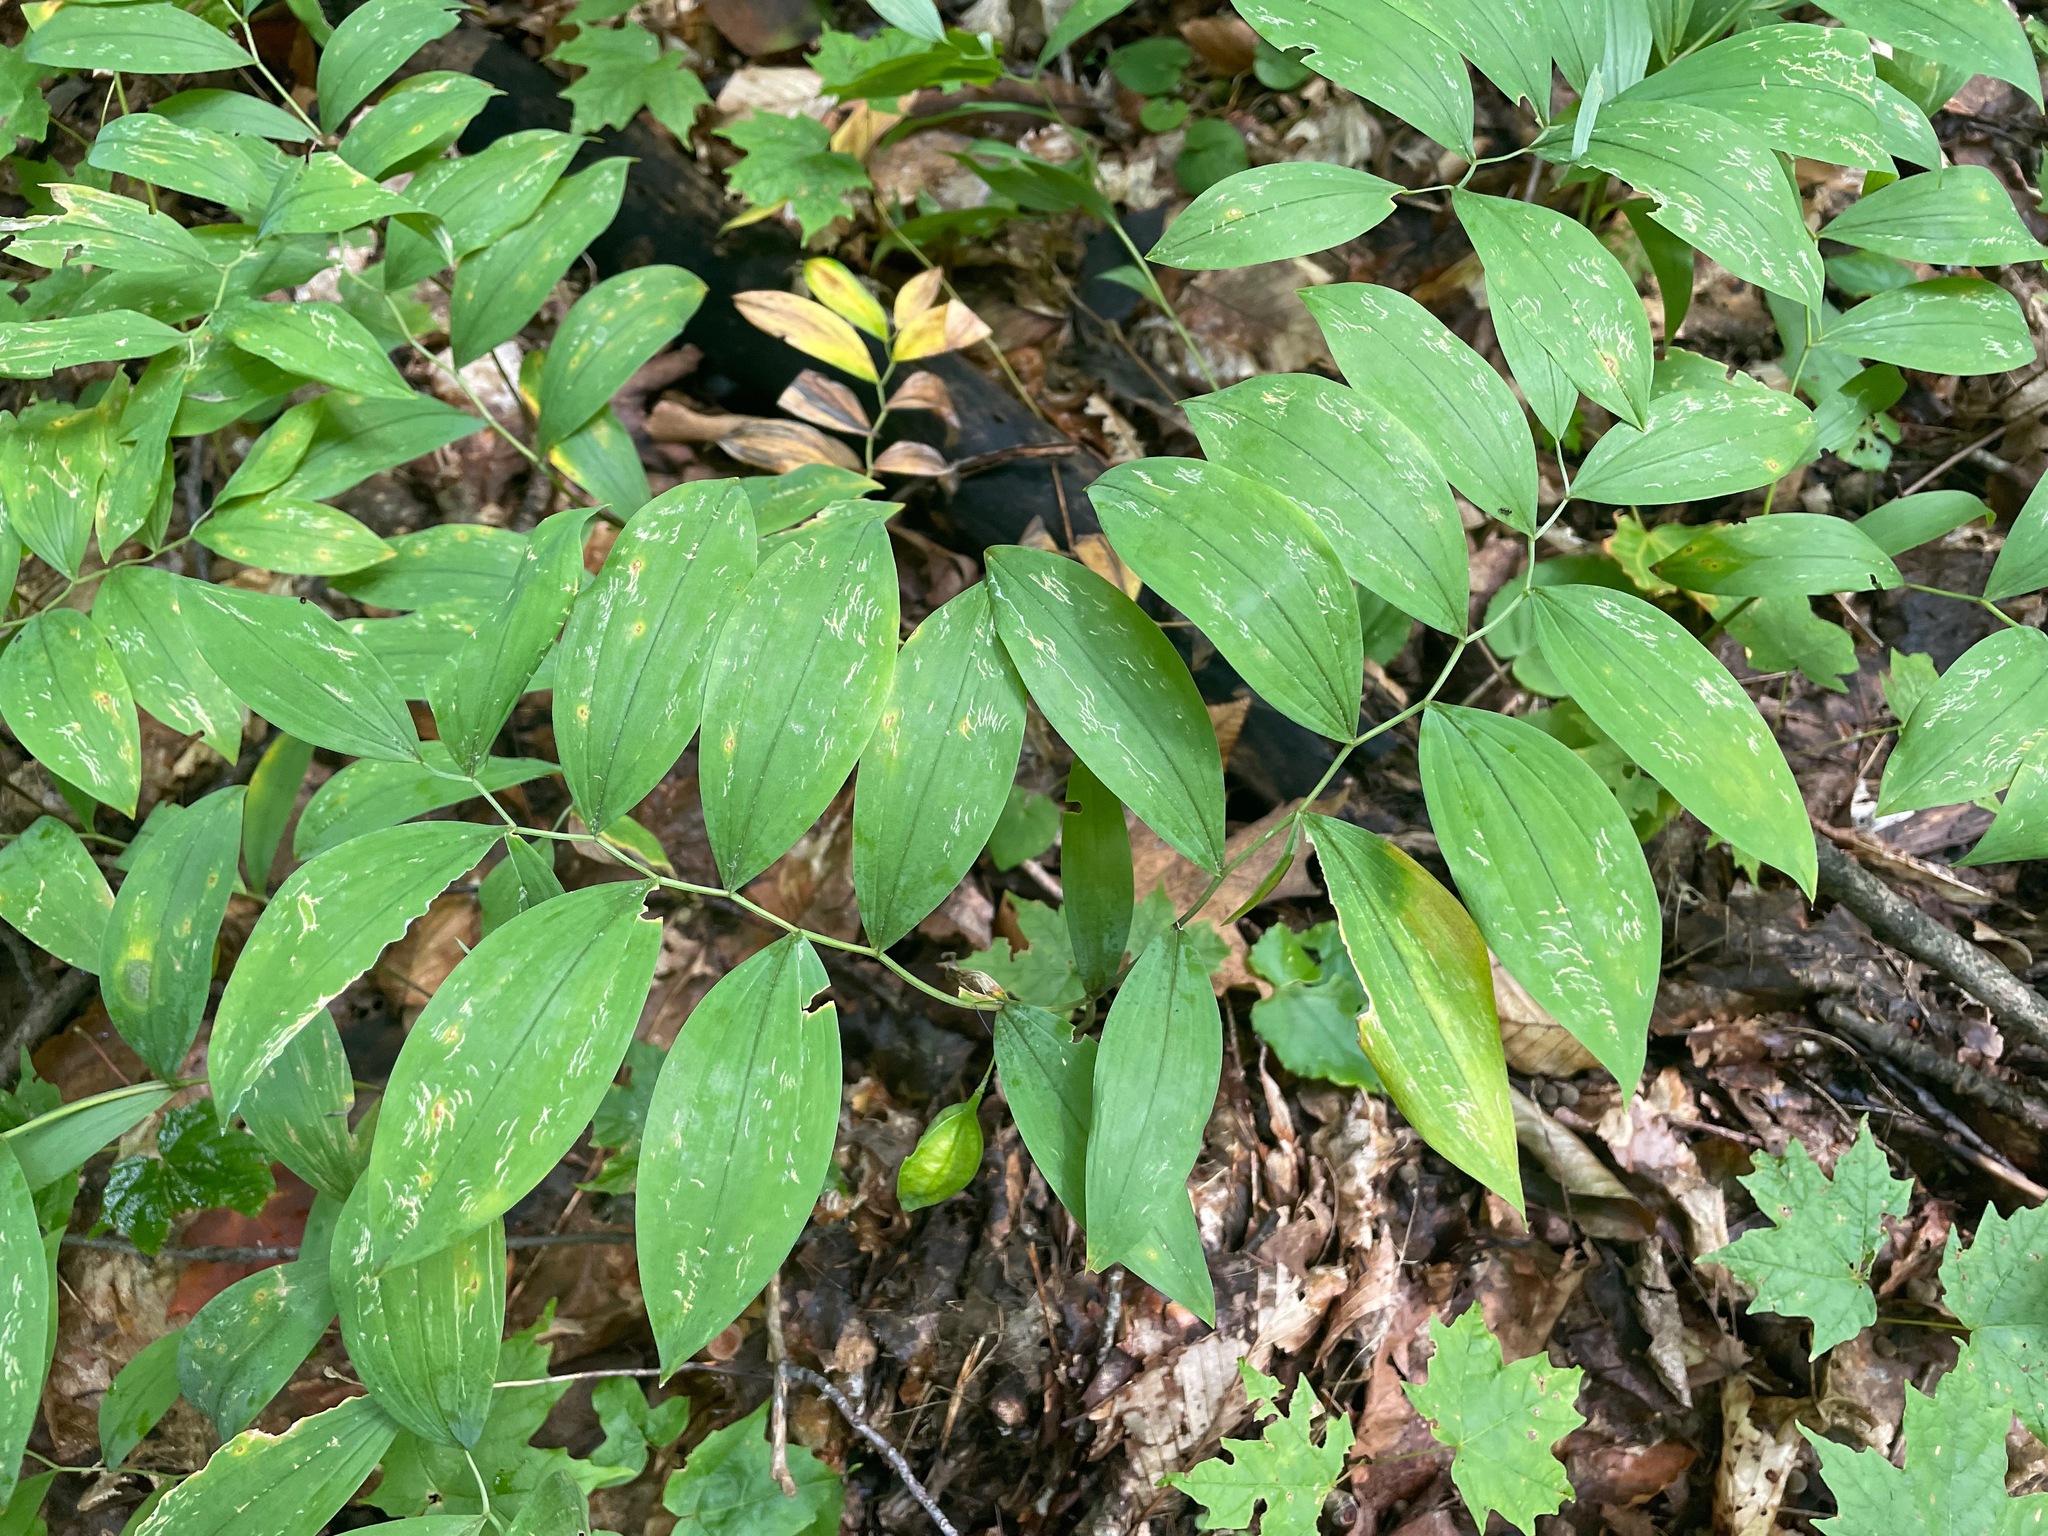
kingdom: Plantae
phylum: Tracheophyta
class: Liliopsida
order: Liliales
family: Colchicaceae
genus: Uvularia
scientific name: Uvularia sessilifolia
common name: Straw-lily
